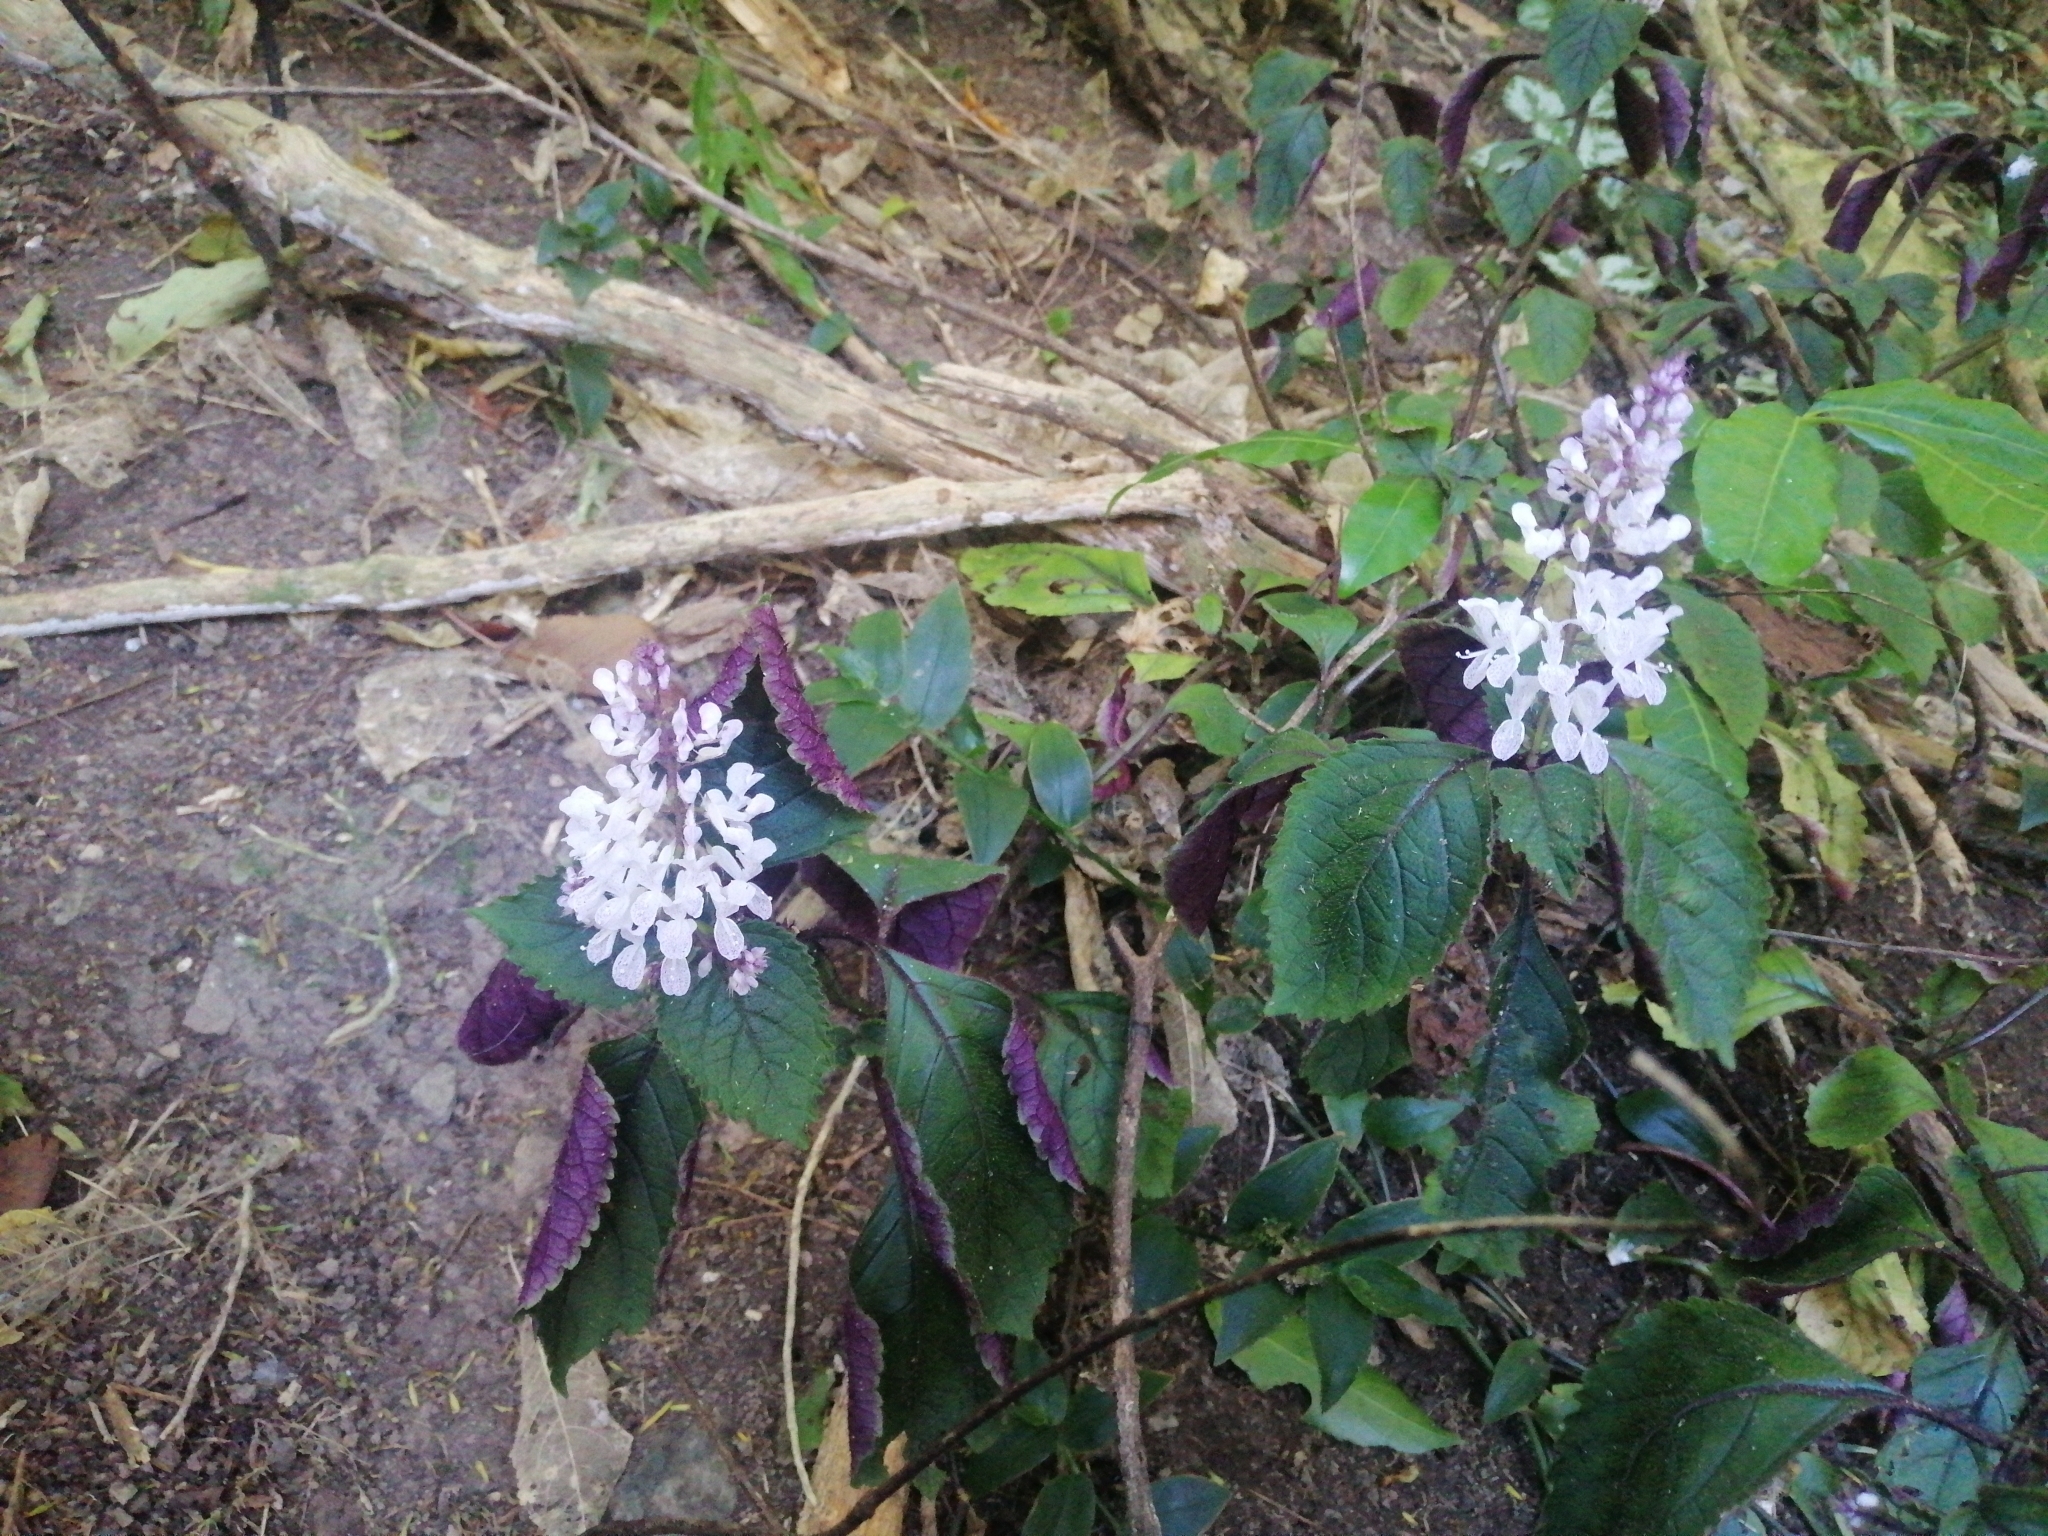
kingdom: Plantae
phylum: Tracheophyta
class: Magnoliopsida
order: Lamiales
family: Lamiaceae
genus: Plectranthus
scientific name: Plectranthus ciliatus
